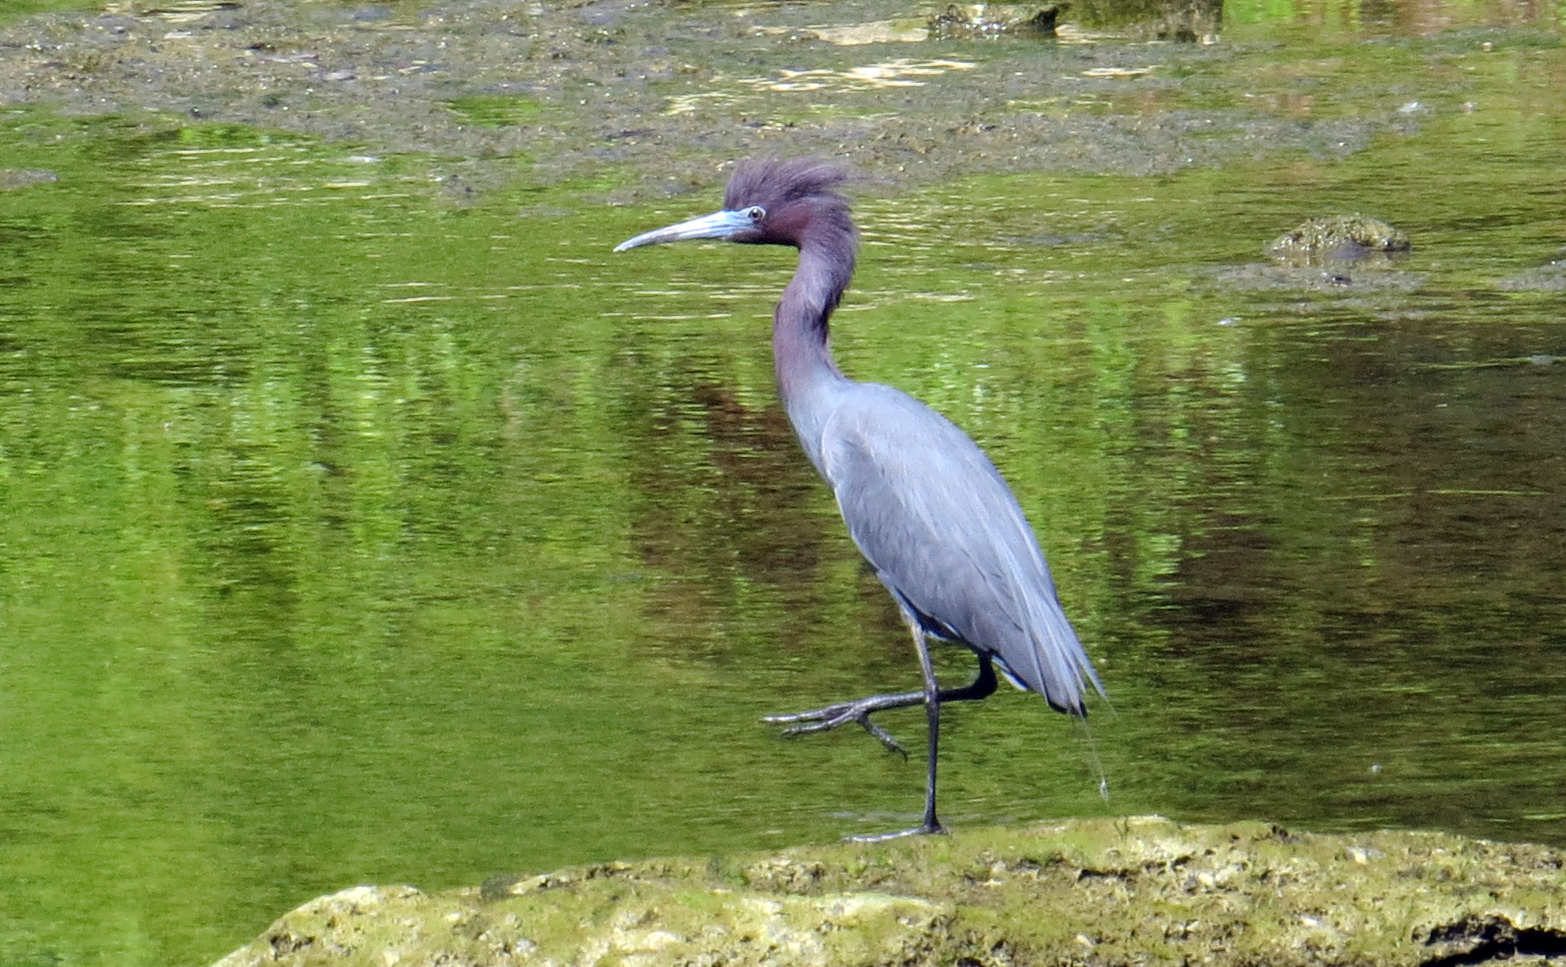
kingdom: Animalia
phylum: Chordata
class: Aves
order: Pelecaniformes
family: Ardeidae
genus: Egretta
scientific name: Egretta caerulea
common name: Little blue heron
